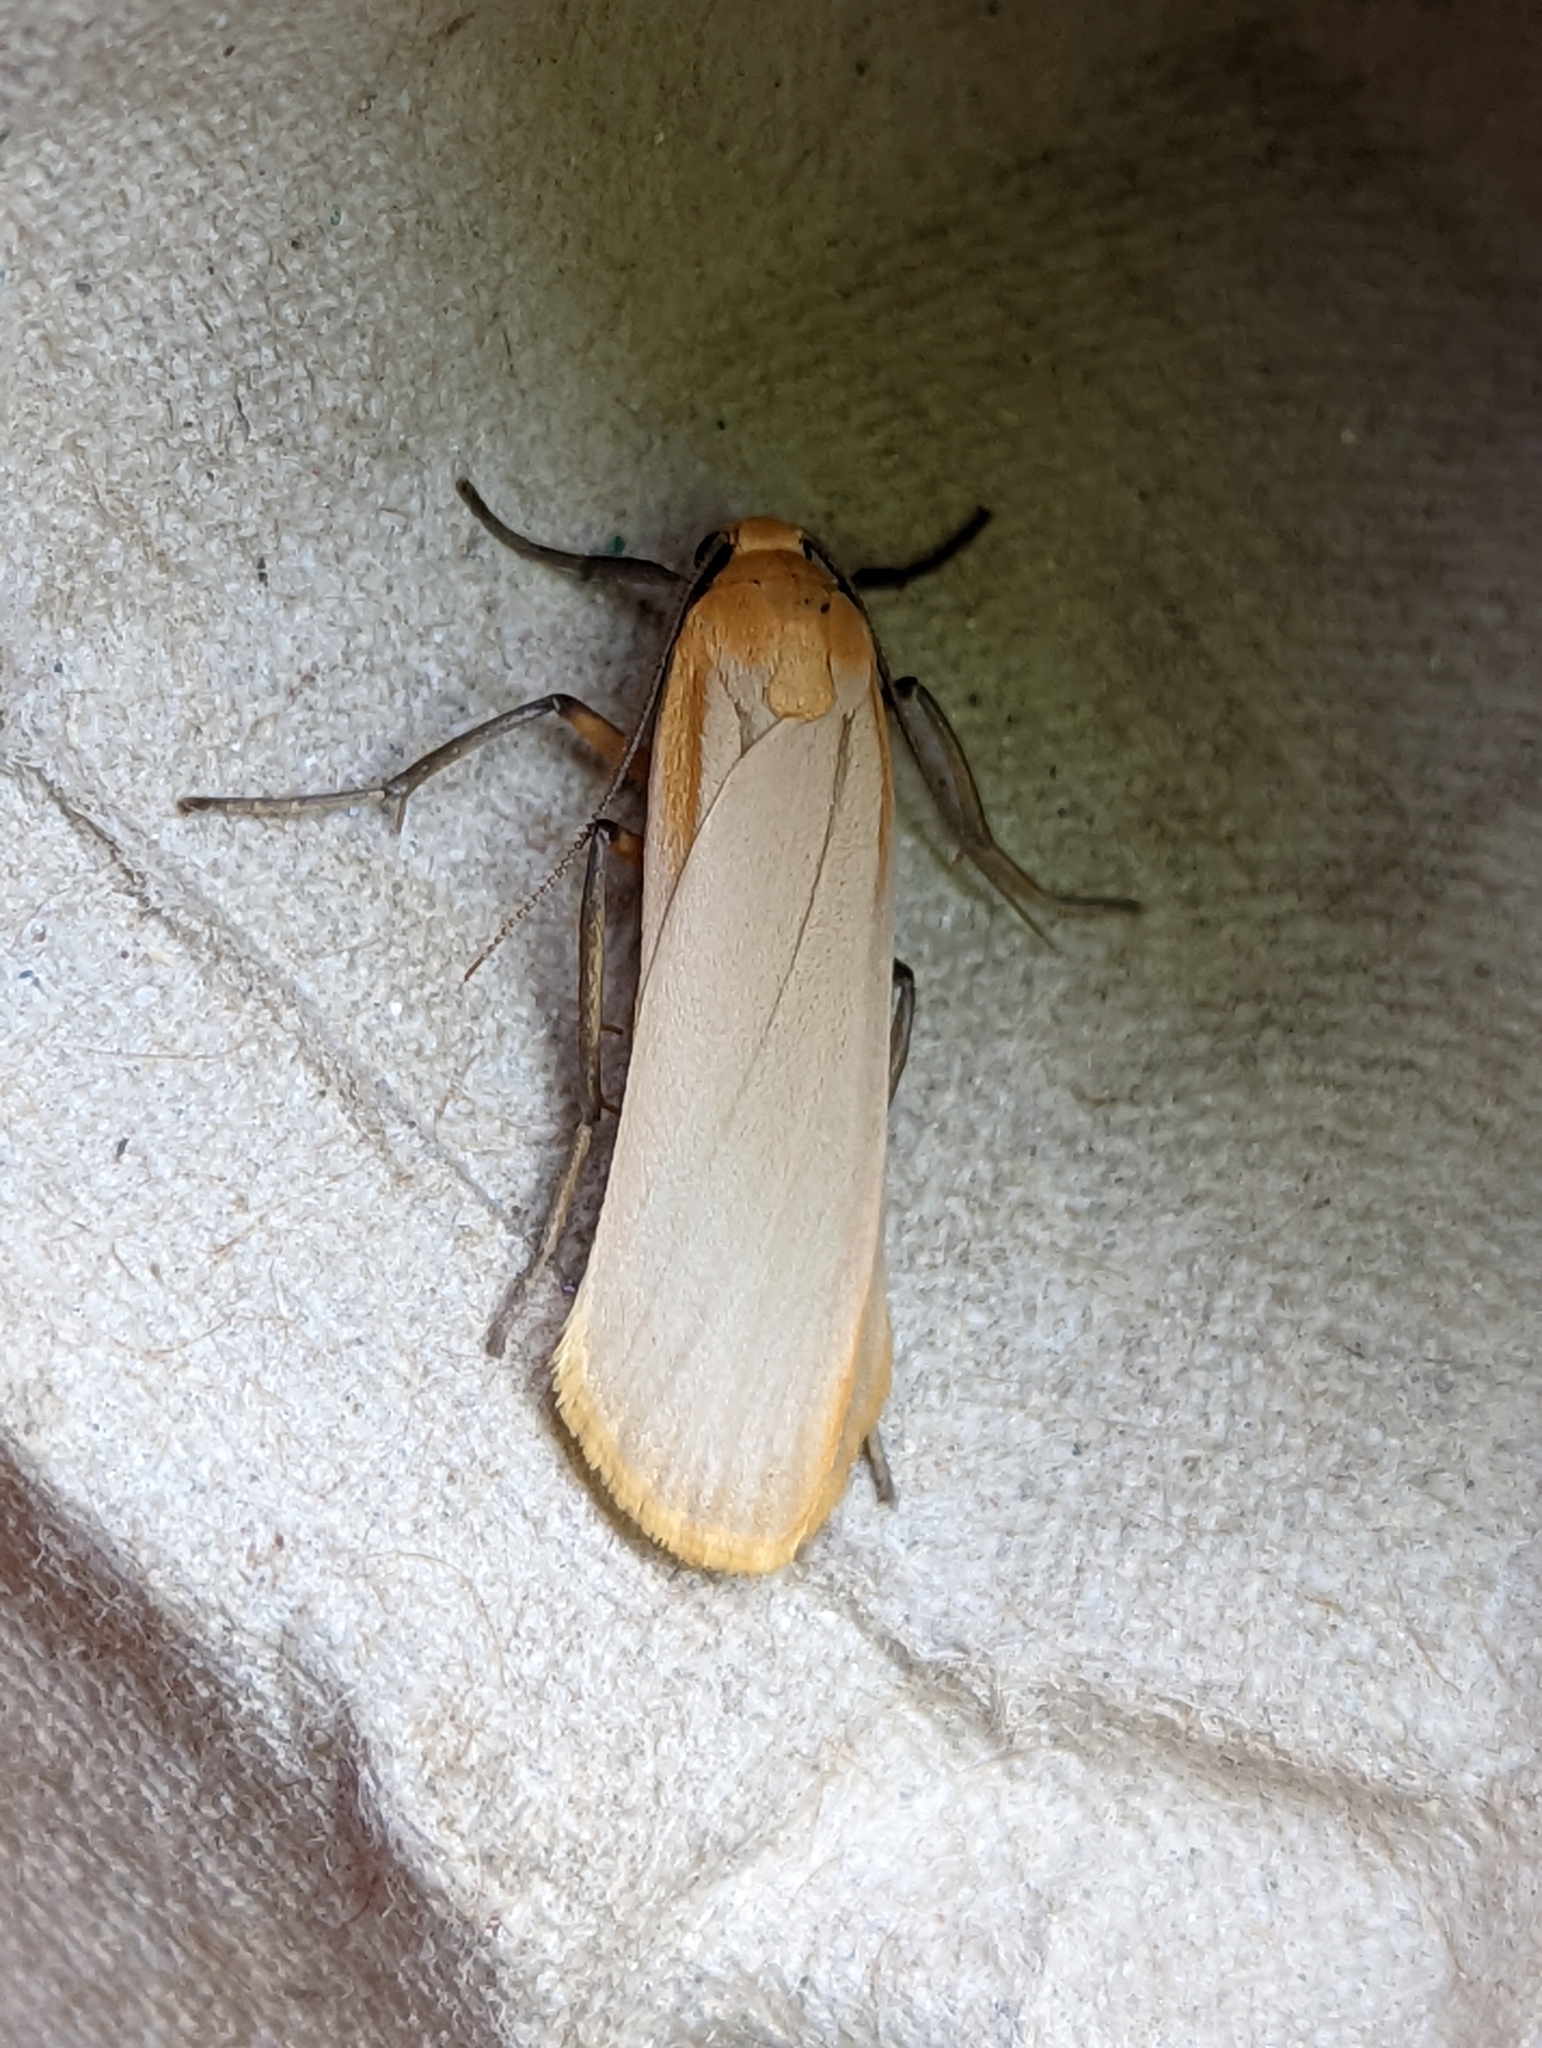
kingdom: Animalia
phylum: Arthropoda
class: Insecta
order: Lepidoptera
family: Erebidae
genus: Katha
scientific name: Katha depressa
